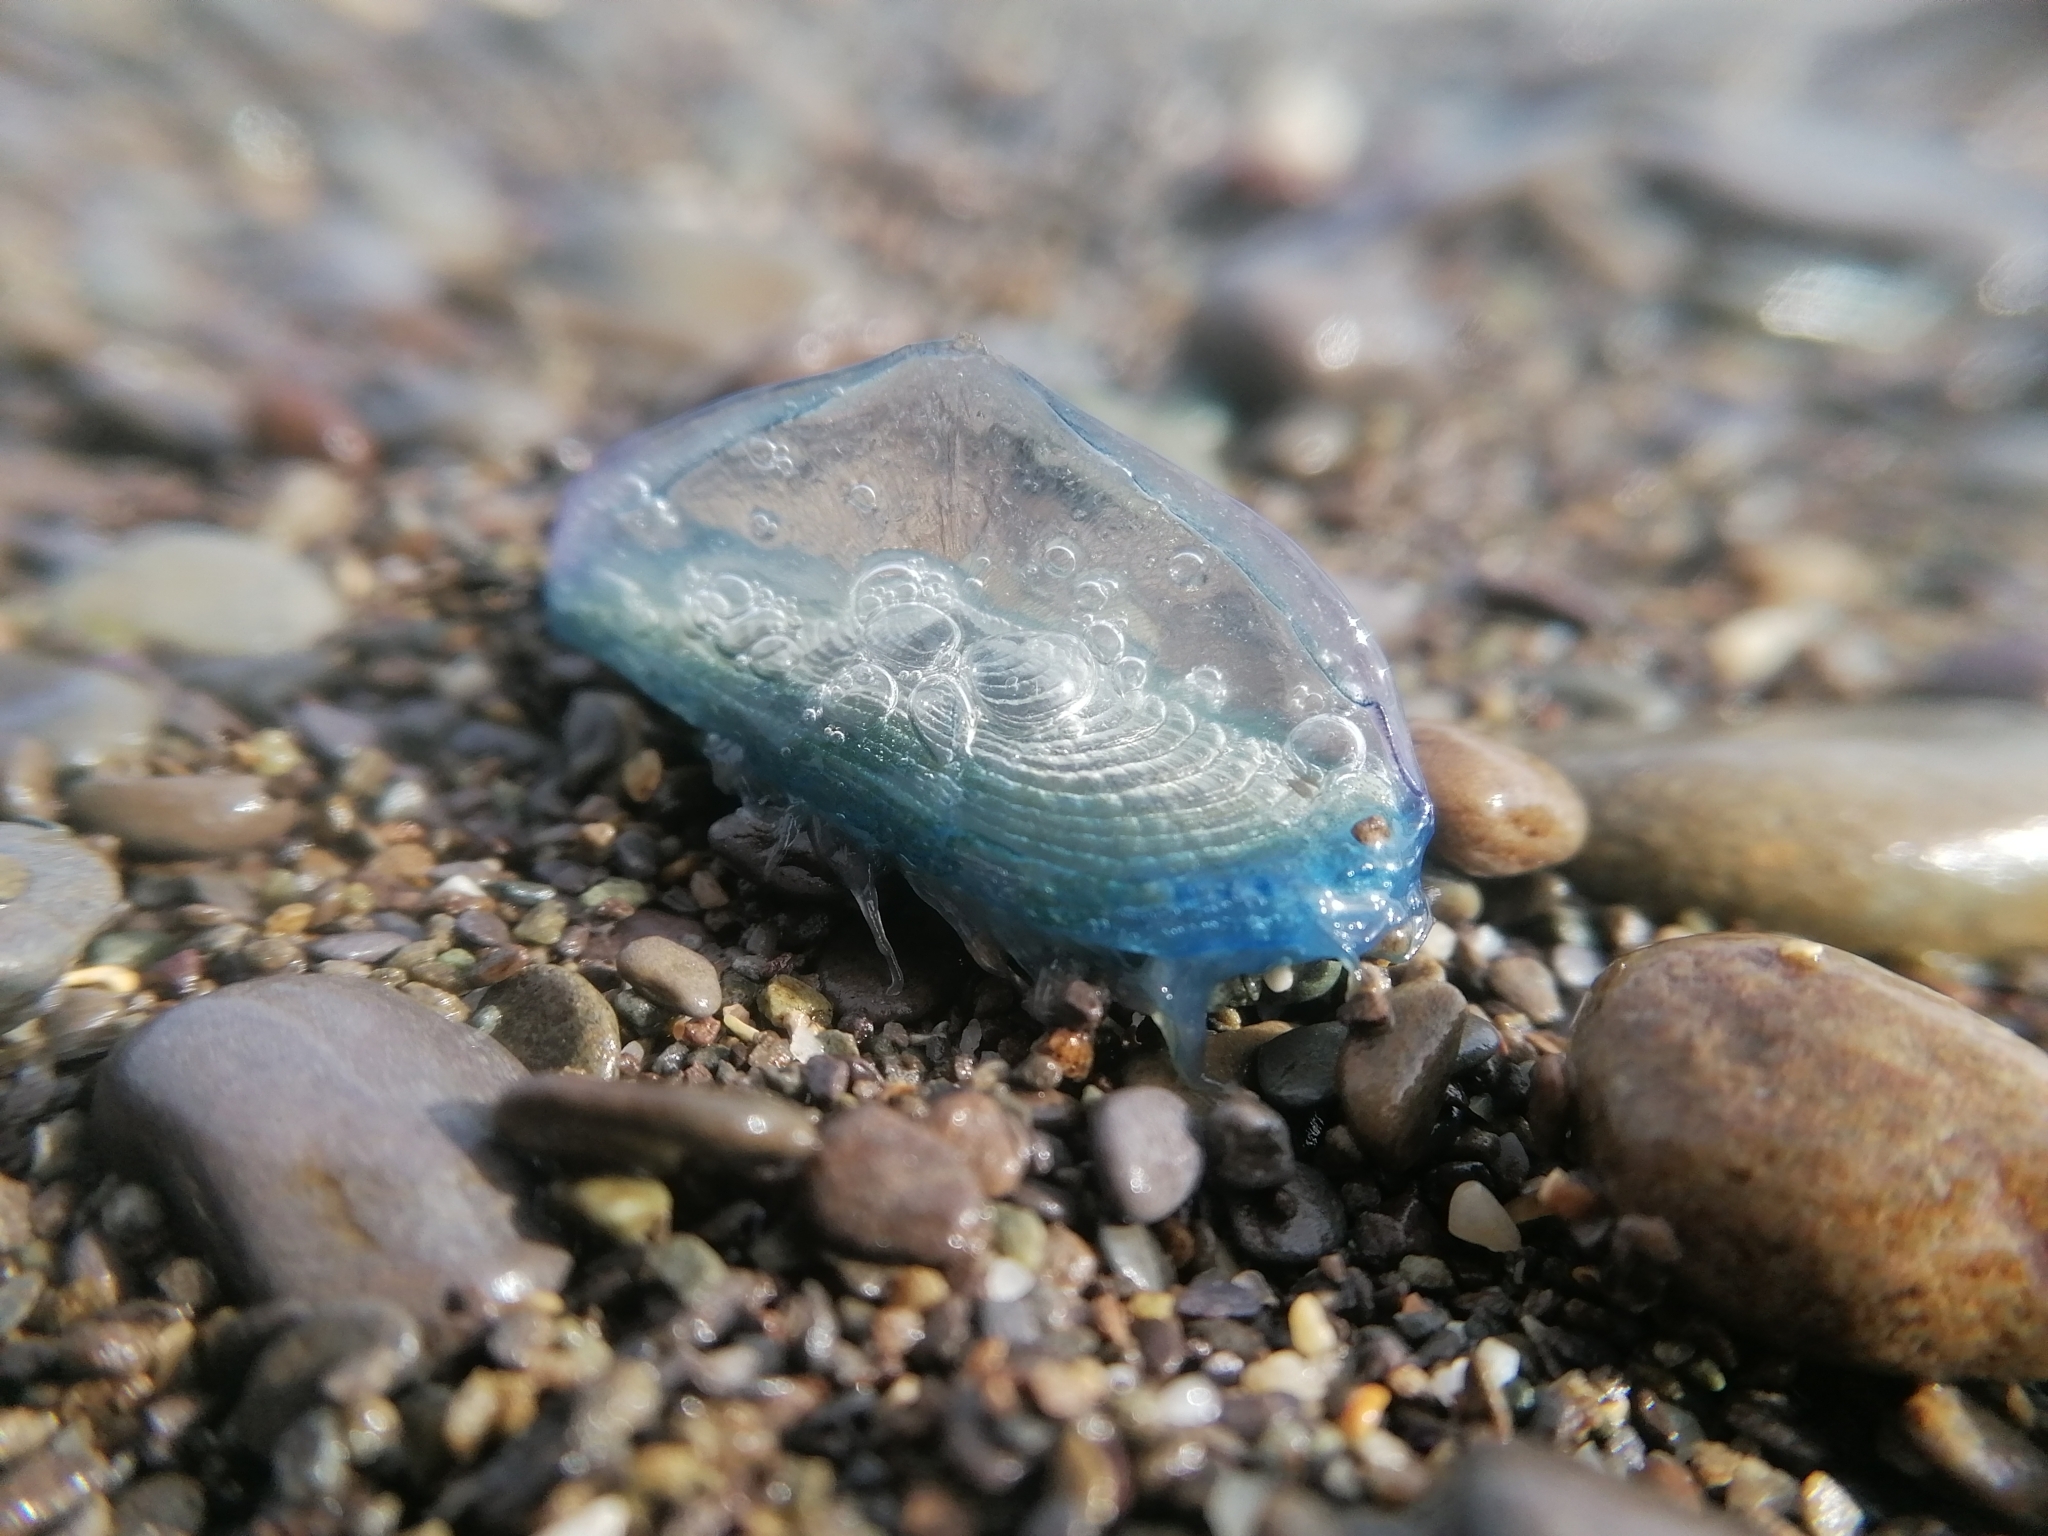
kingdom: Animalia
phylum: Cnidaria
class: Hydrozoa
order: Anthoathecata
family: Porpitidae
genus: Velella
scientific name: Velella velella
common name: By-the-wind-sailor
